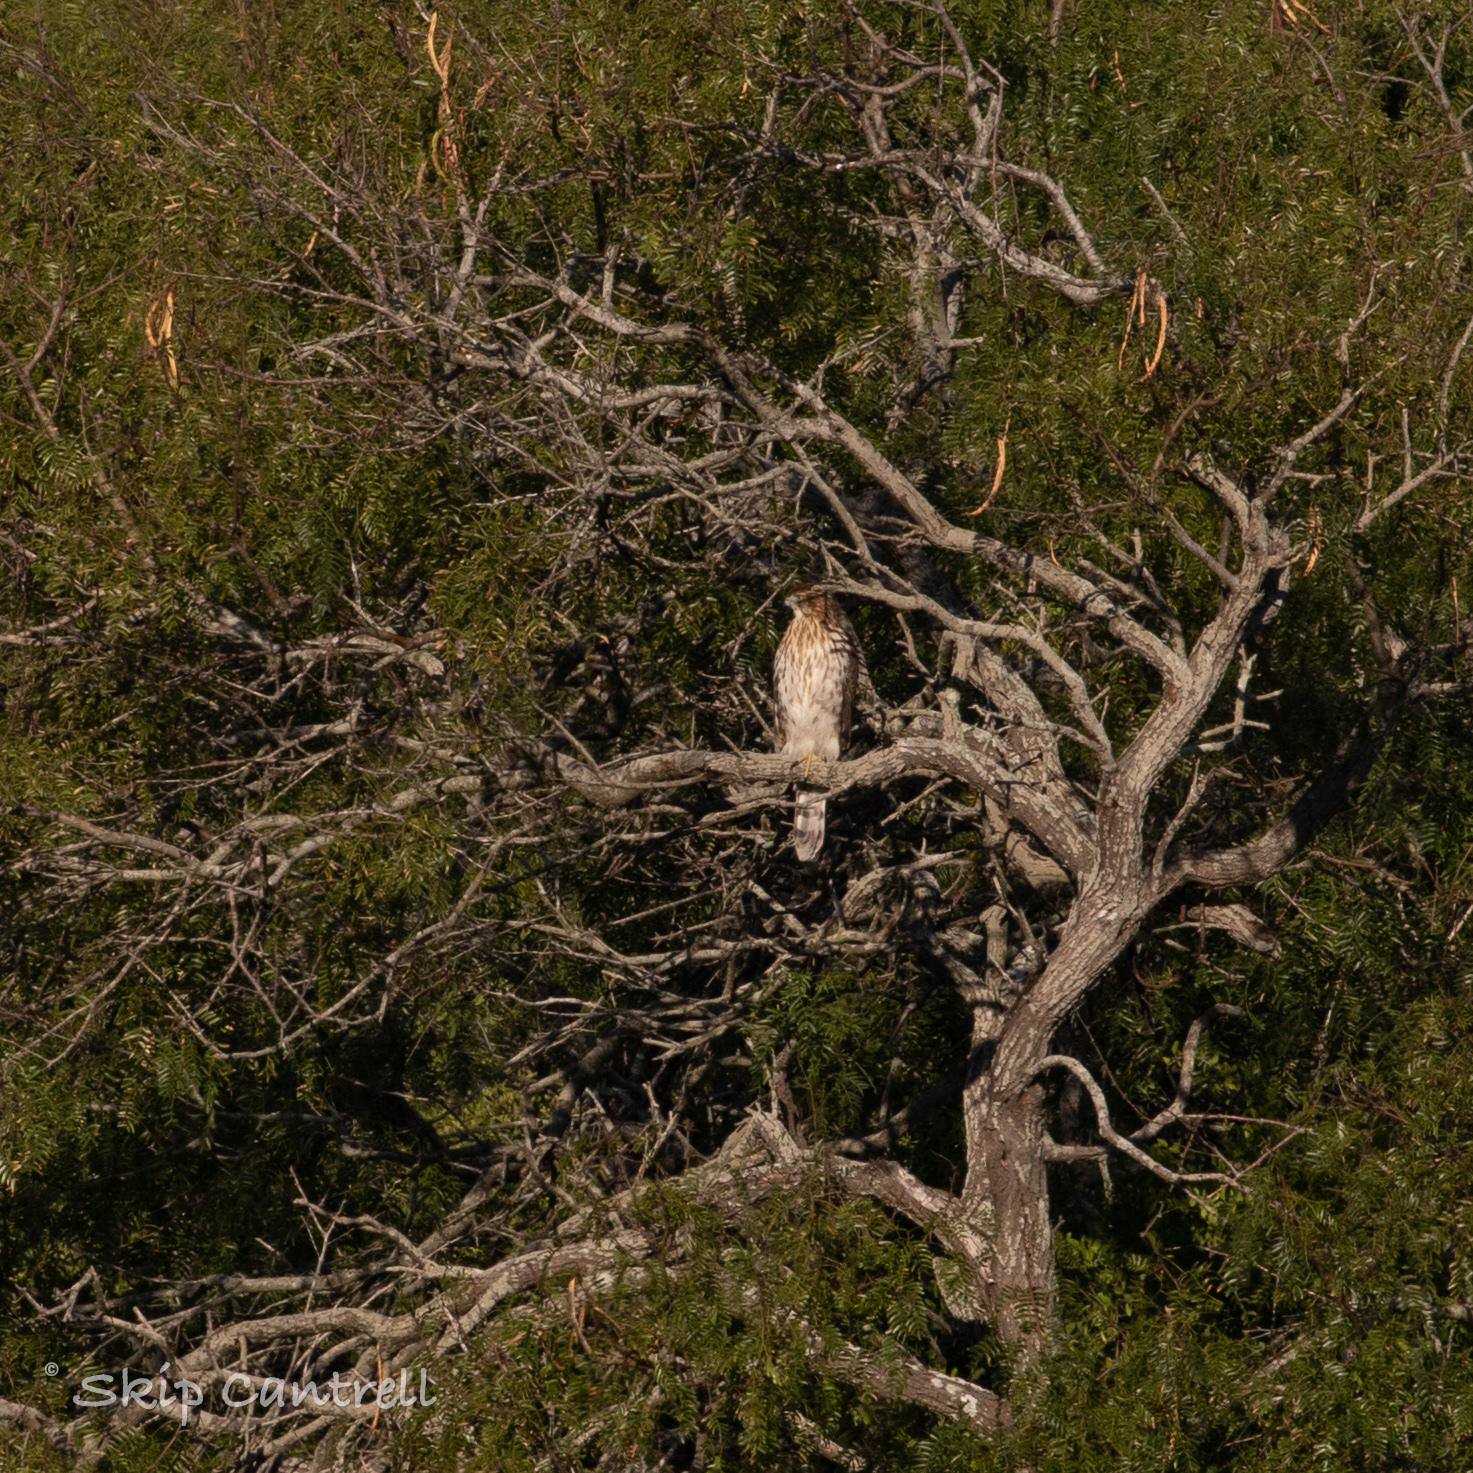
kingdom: Animalia
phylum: Chordata
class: Aves
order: Accipitriformes
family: Accipitridae
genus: Accipiter
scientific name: Accipiter cooperii
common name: Cooper's hawk
